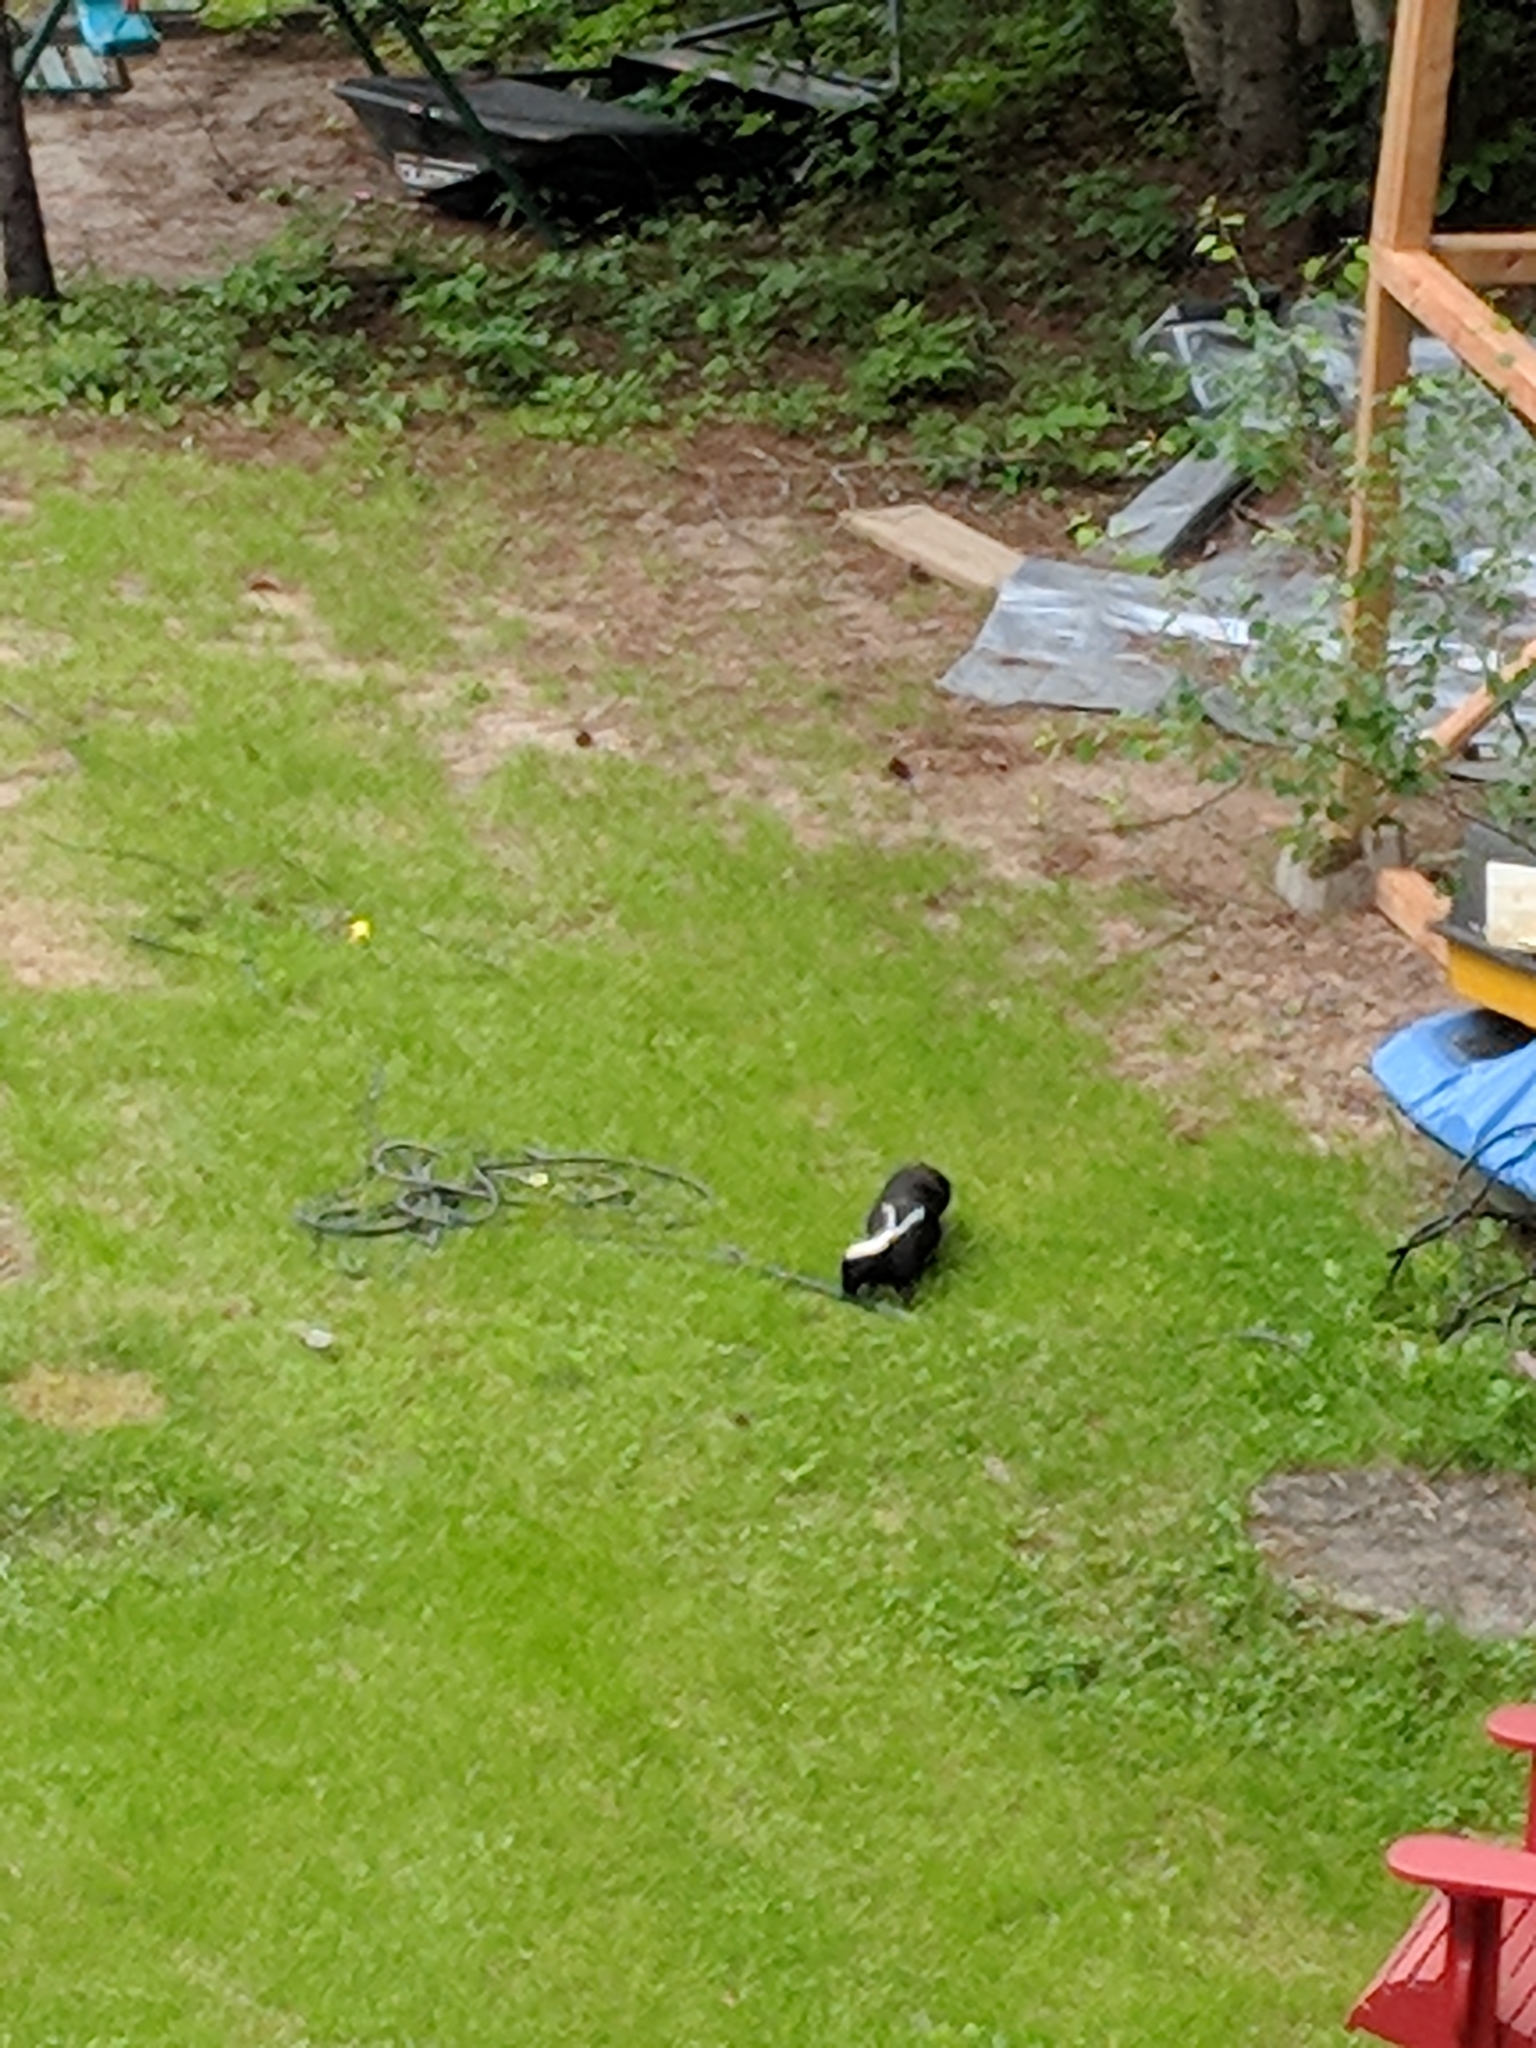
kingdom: Animalia
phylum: Chordata
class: Mammalia
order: Carnivora
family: Mephitidae
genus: Mephitis
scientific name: Mephitis mephitis
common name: Striped skunk
